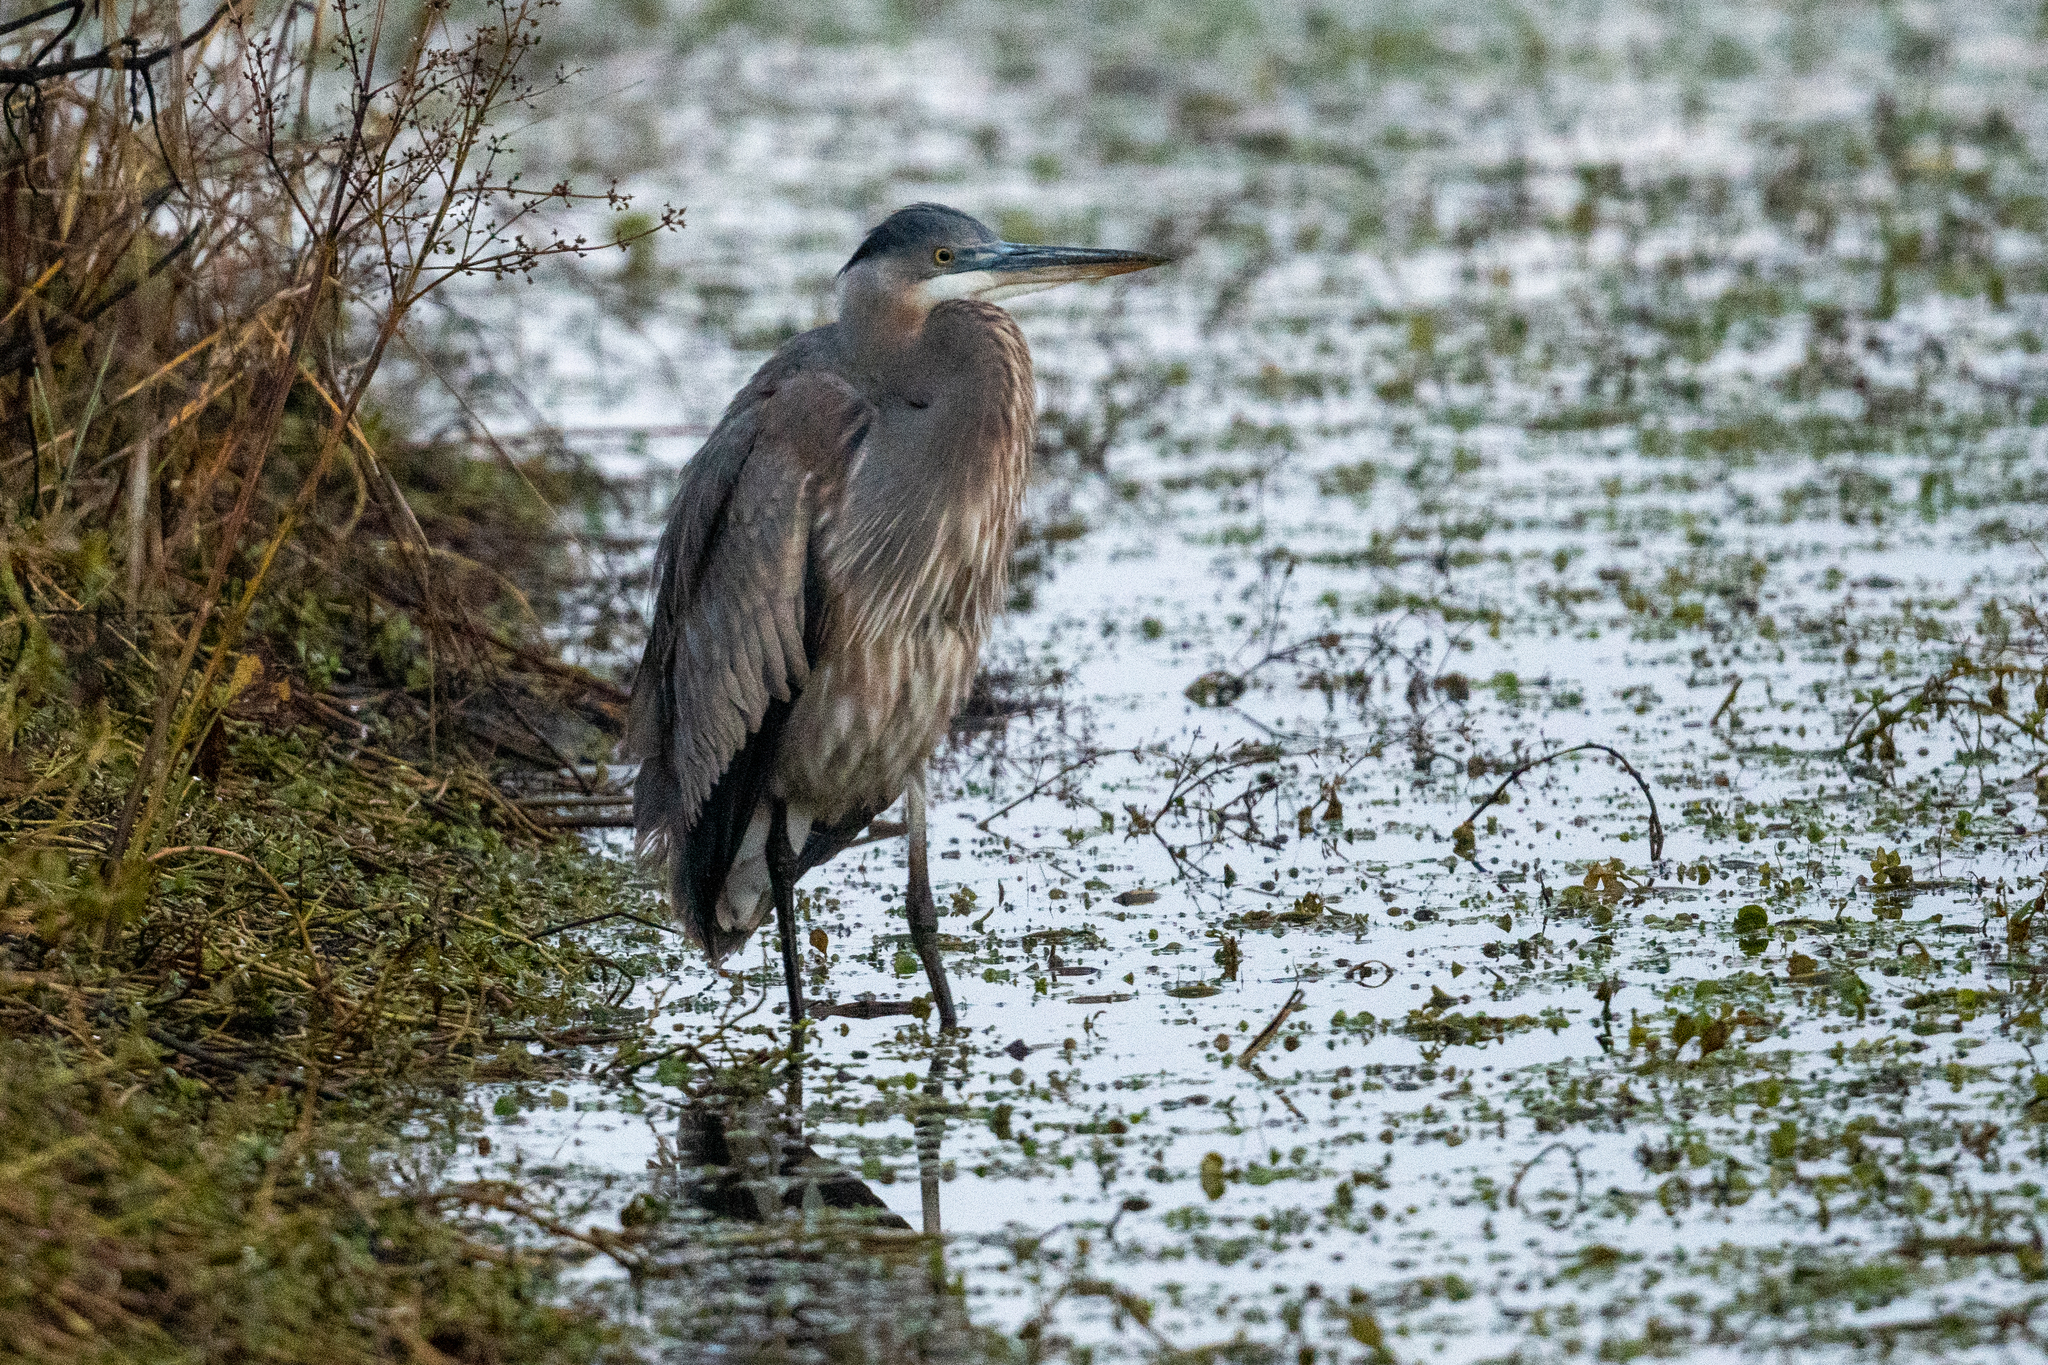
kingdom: Animalia
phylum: Chordata
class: Aves
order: Pelecaniformes
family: Ardeidae
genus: Ardea
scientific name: Ardea herodias
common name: Great blue heron
